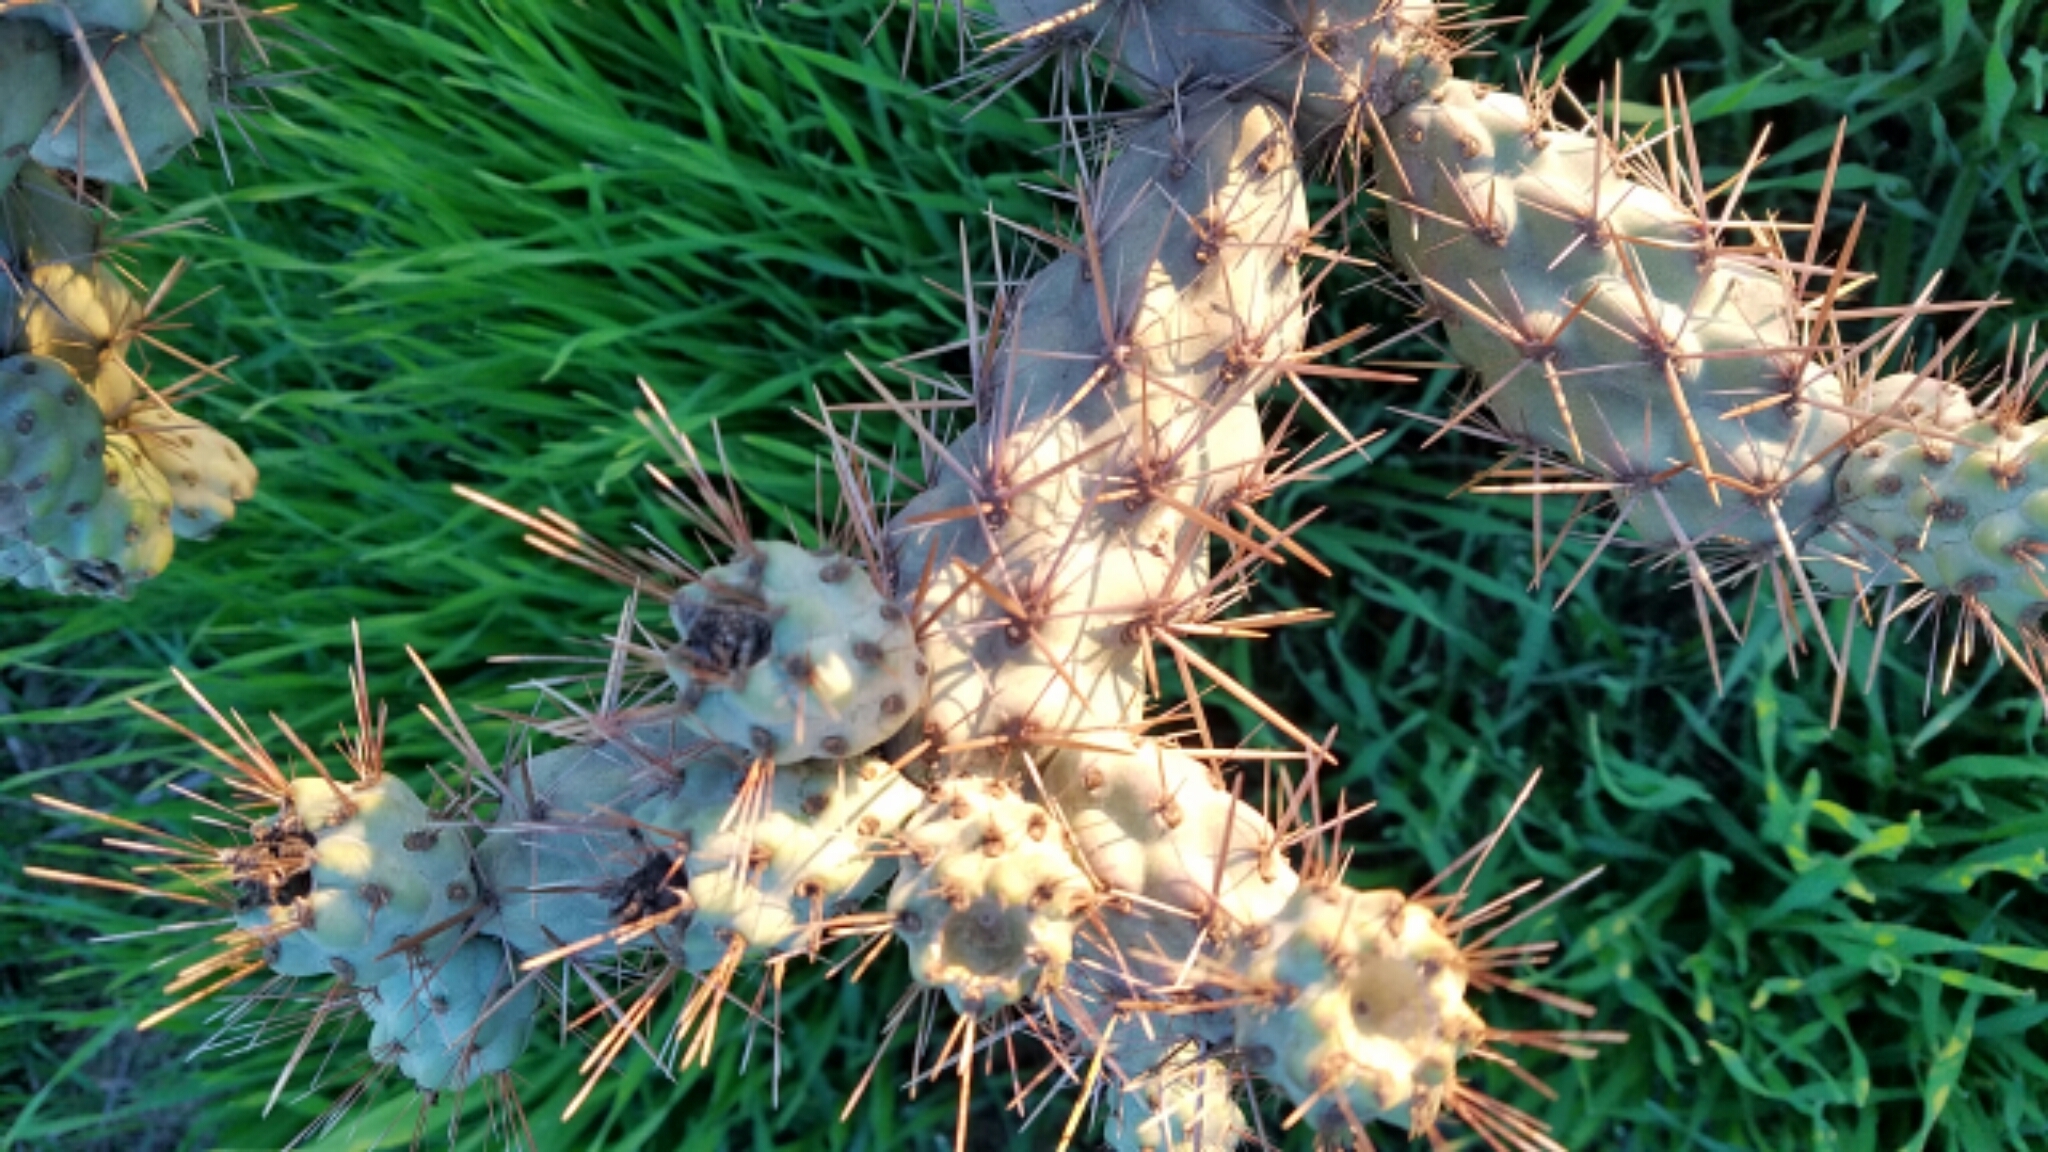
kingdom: Plantae
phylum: Tracheophyta
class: Magnoliopsida
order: Caryophyllales
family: Cactaceae
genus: Cylindropuntia
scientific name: Cylindropuntia prolifera
